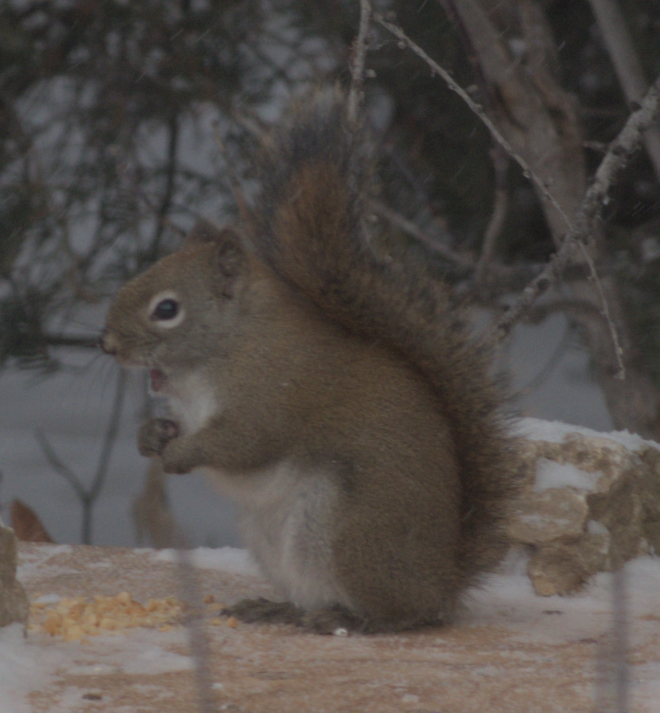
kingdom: Animalia
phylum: Chordata
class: Mammalia
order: Rodentia
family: Sciuridae
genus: Tamiasciurus
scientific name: Tamiasciurus hudsonicus
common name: Red squirrel
